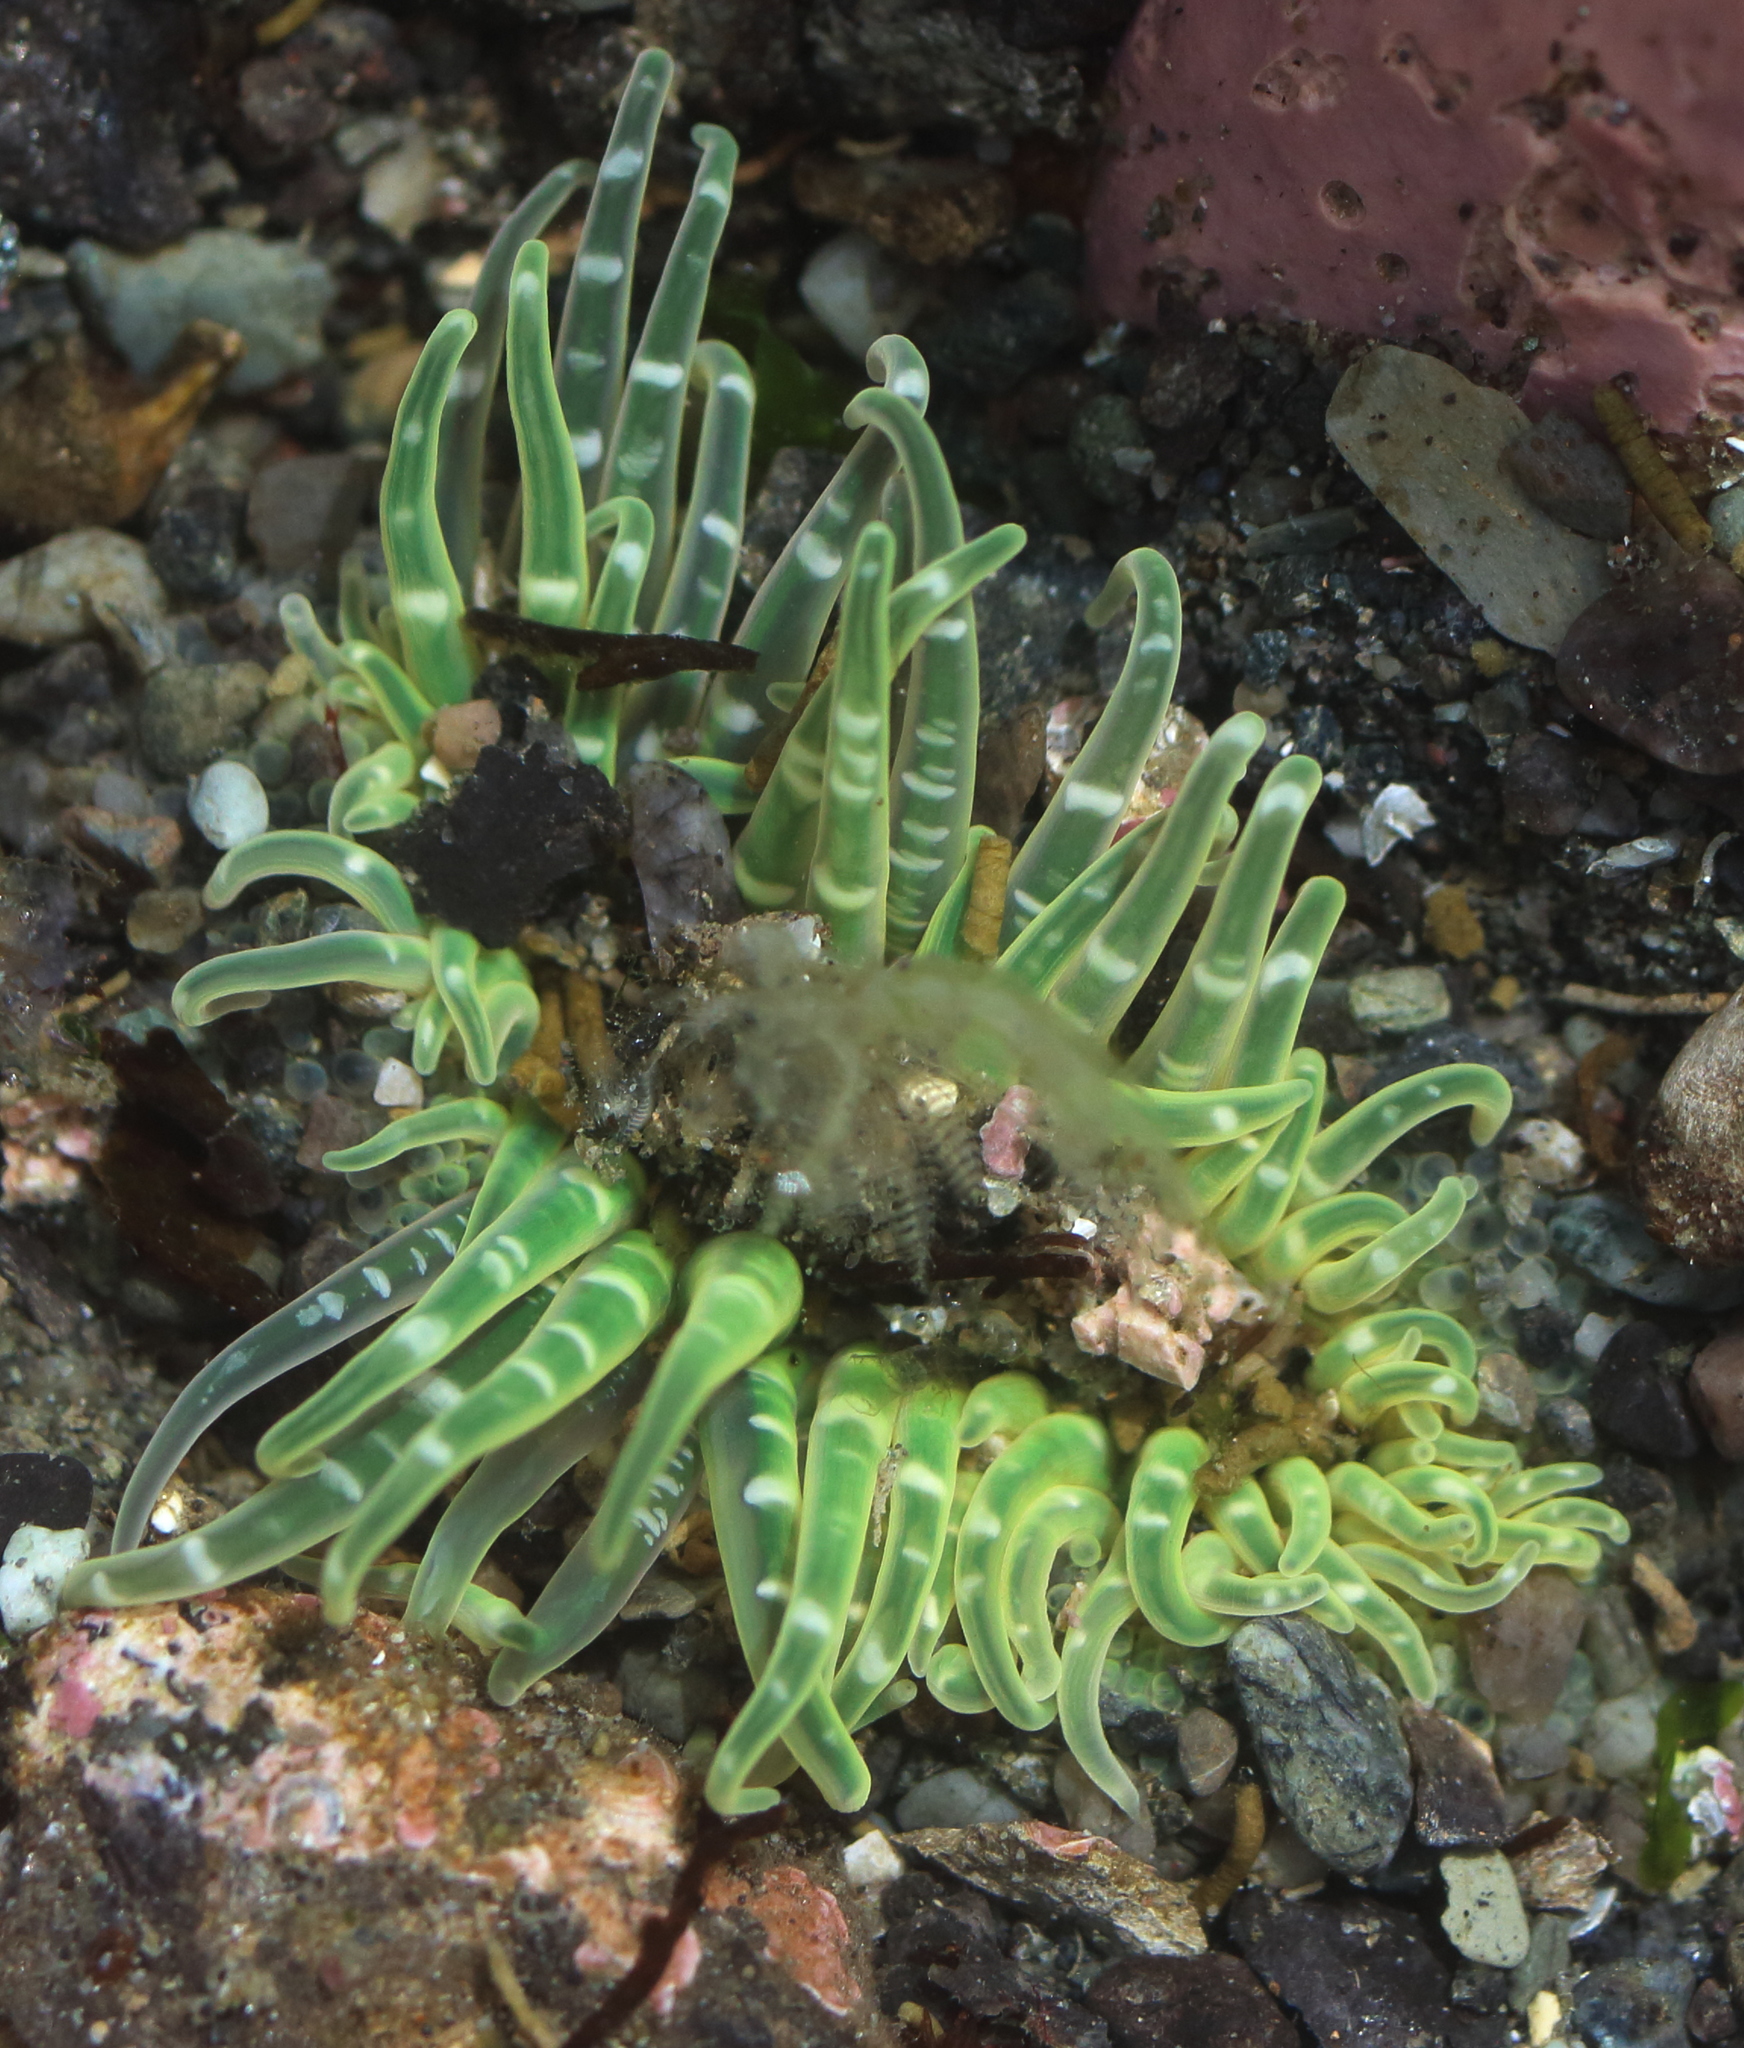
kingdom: Animalia
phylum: Cnidaria
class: Anthozoa
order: Actiniaria
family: Actiniidae
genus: Anthopleura
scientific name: Anthopleura artemisia
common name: Buried sea anemone
